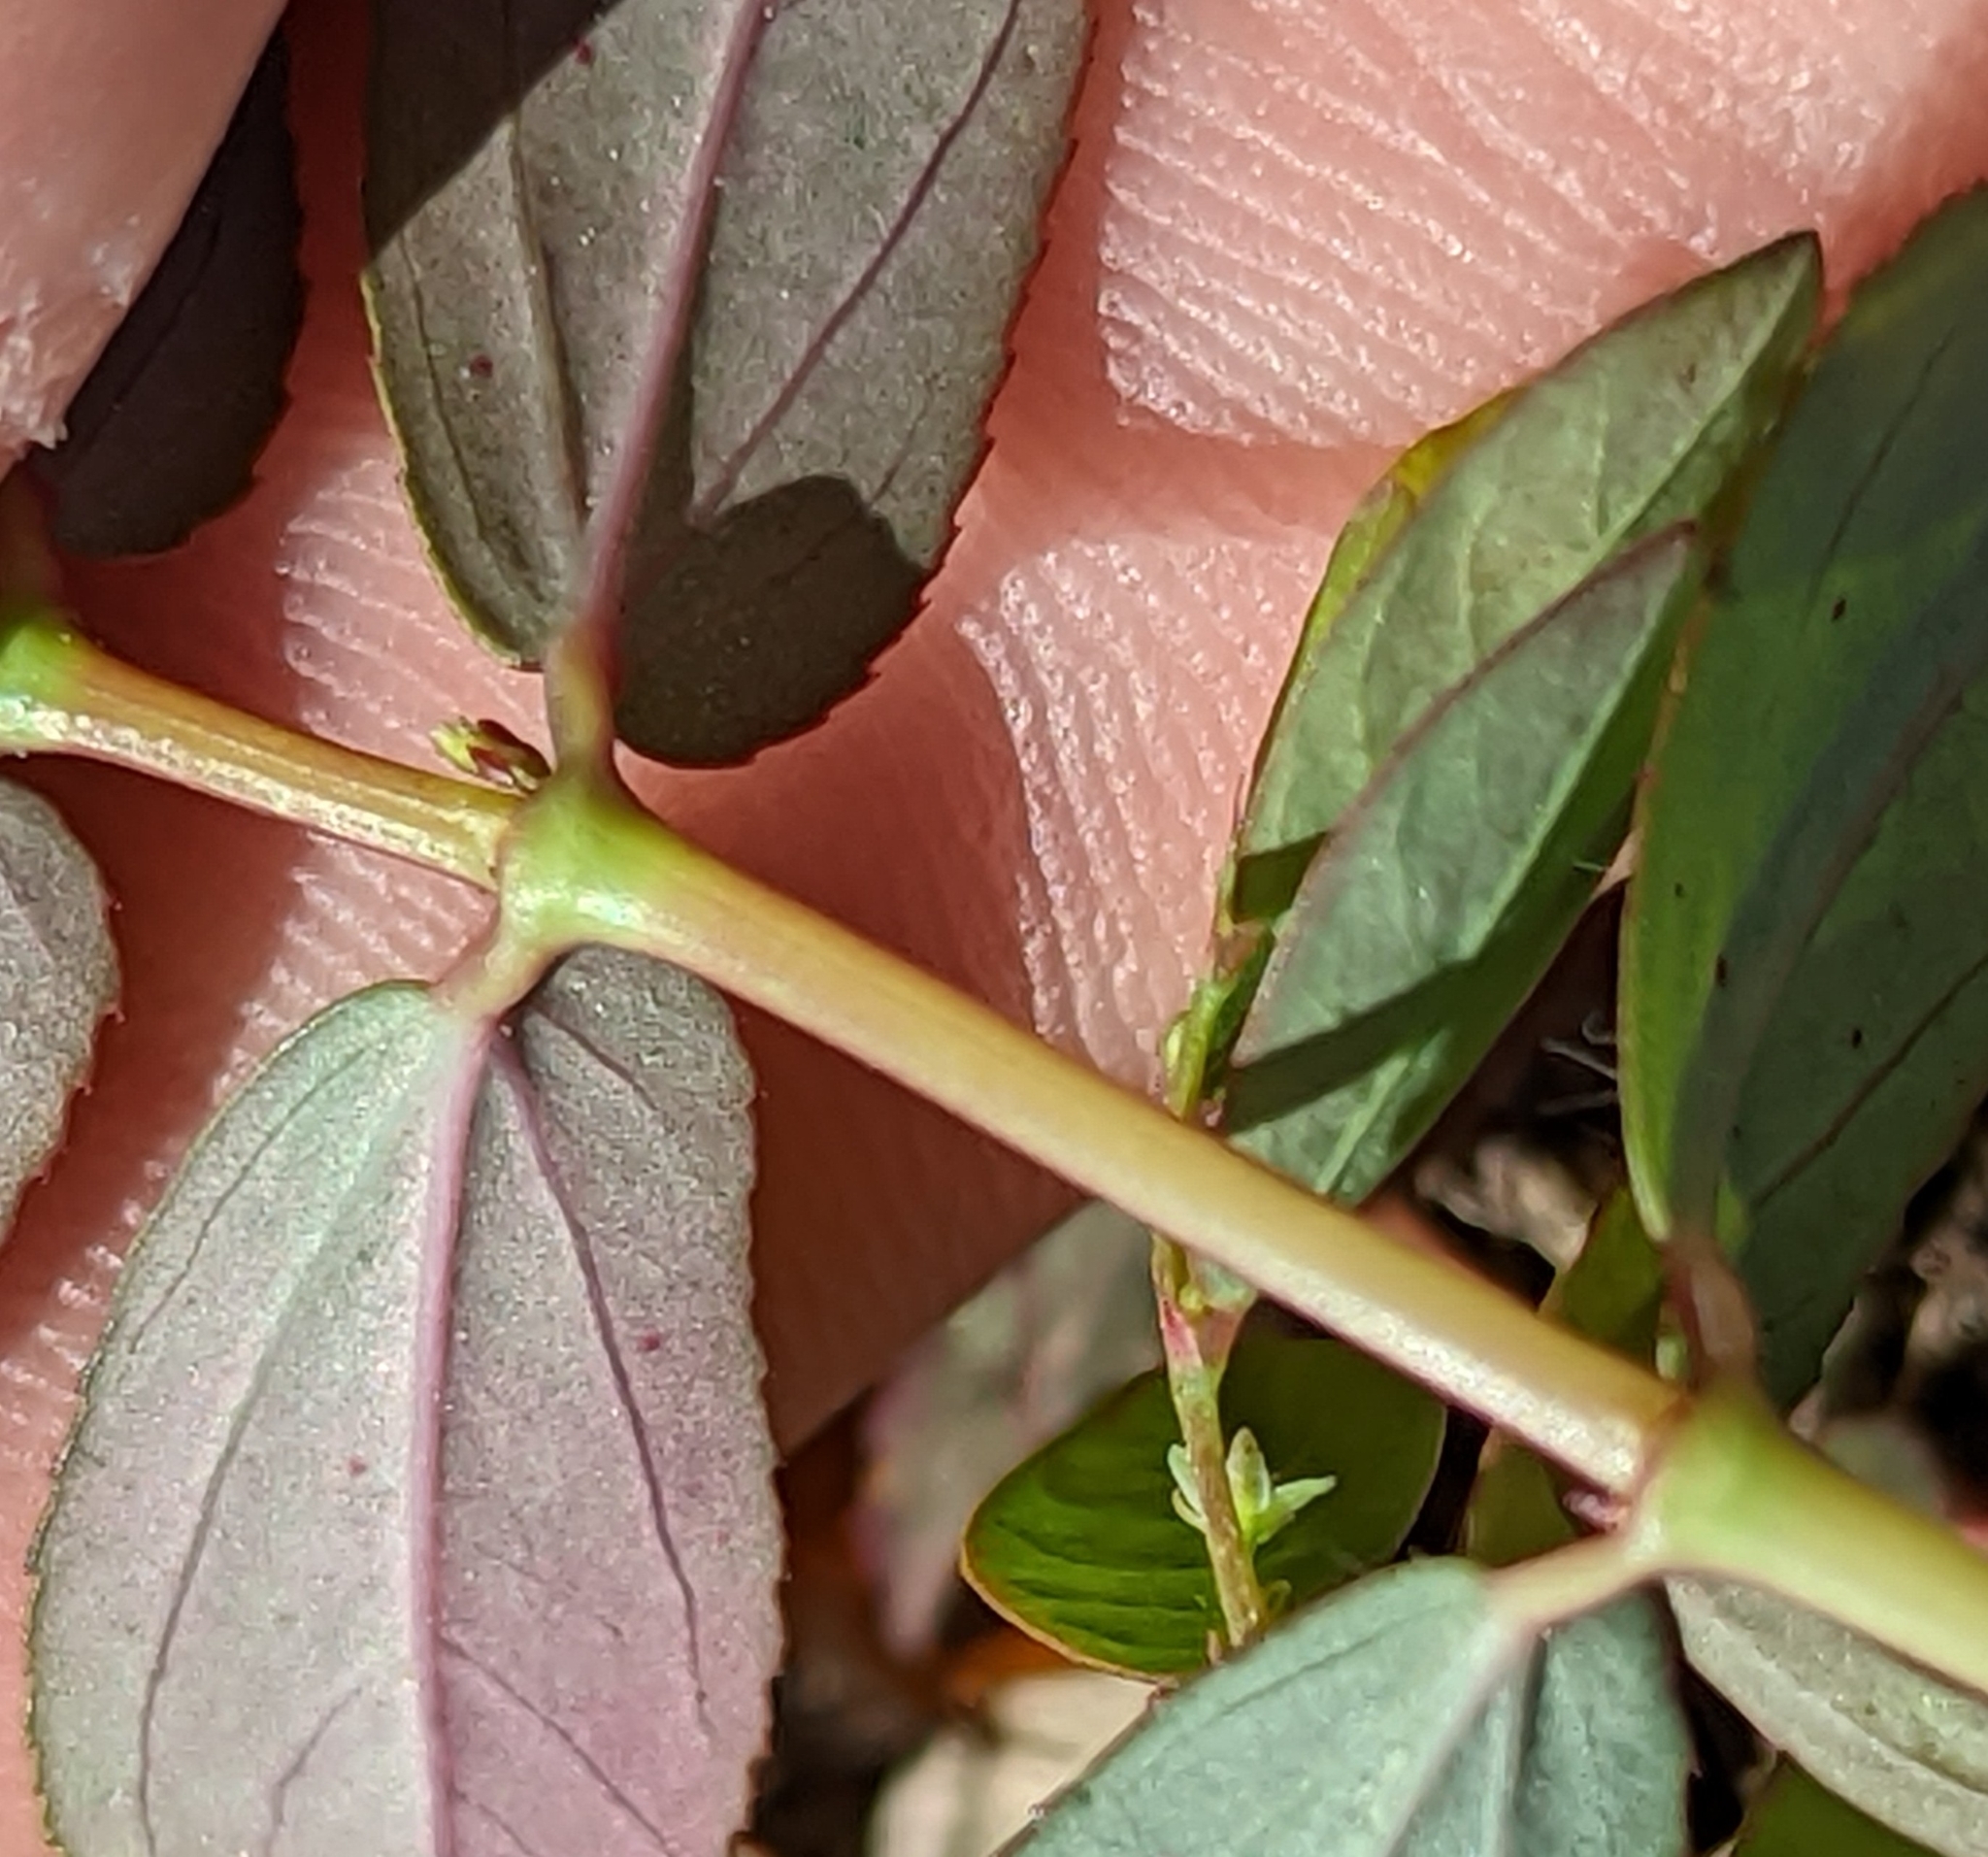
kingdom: Plantae
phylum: Tracheophyta
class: Magnoliopsida
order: Malpighiales
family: Euphorbiaceae
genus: Euphorbia
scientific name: Euphorbia hyssopifolia
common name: Hyssopleaf sandmat
